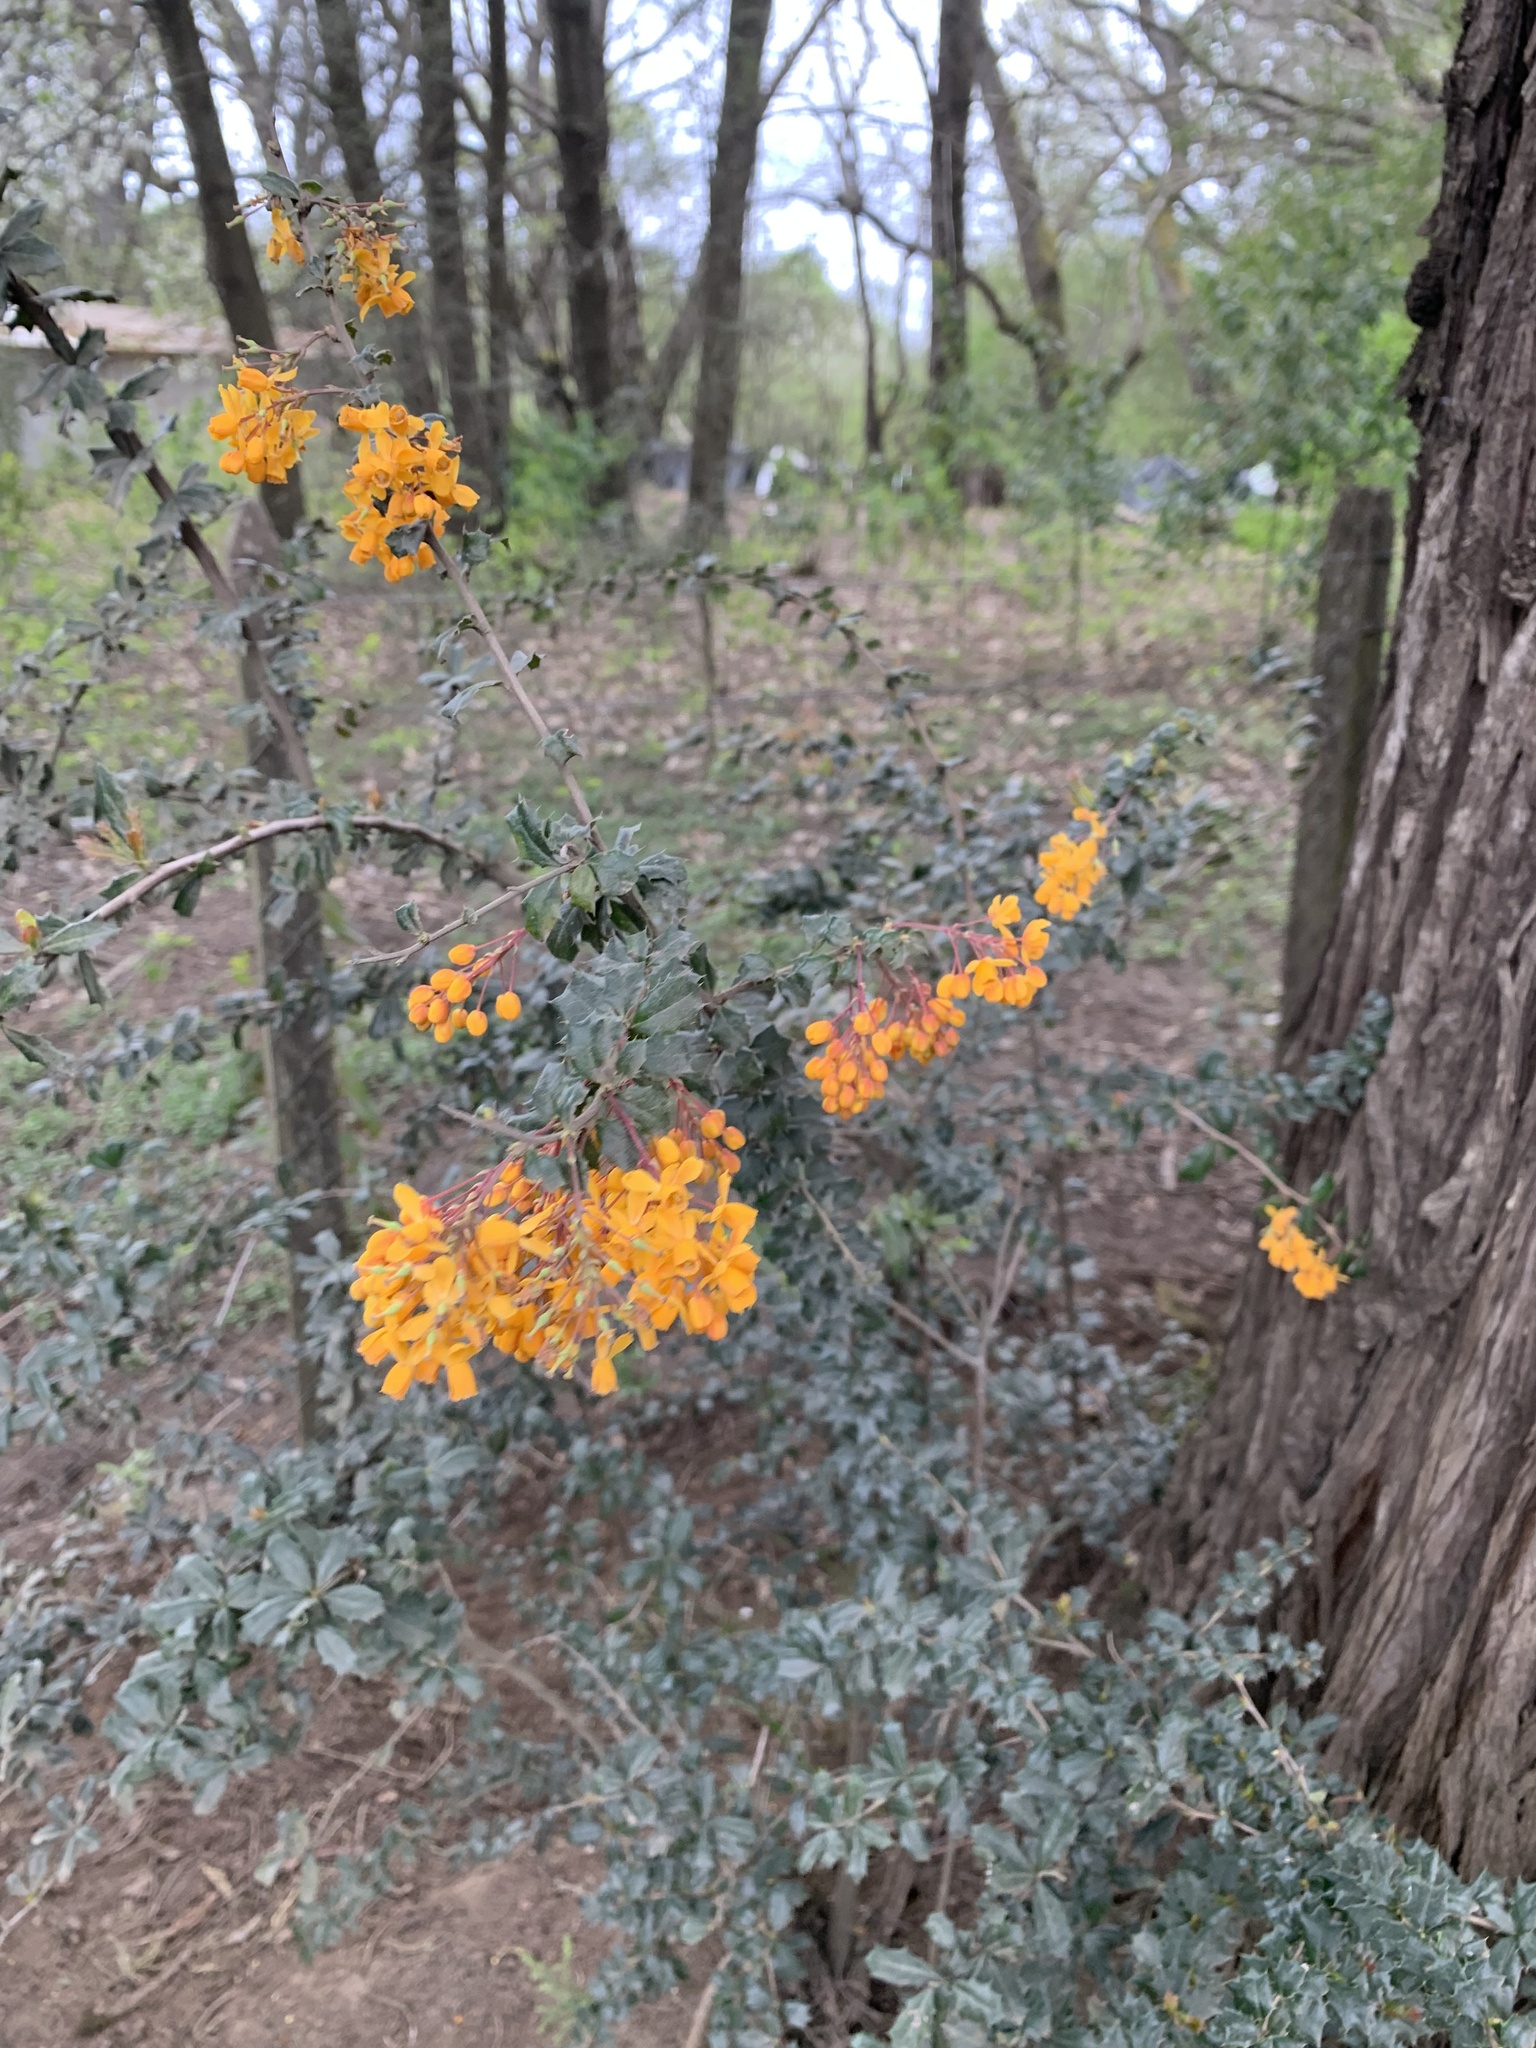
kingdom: Plantae
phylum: Tracheophyta
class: Magnoliopsida
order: Ranunculales
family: Berberidaceae
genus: Berberis
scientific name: Berberis darwinii
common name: Darwin's barberry
